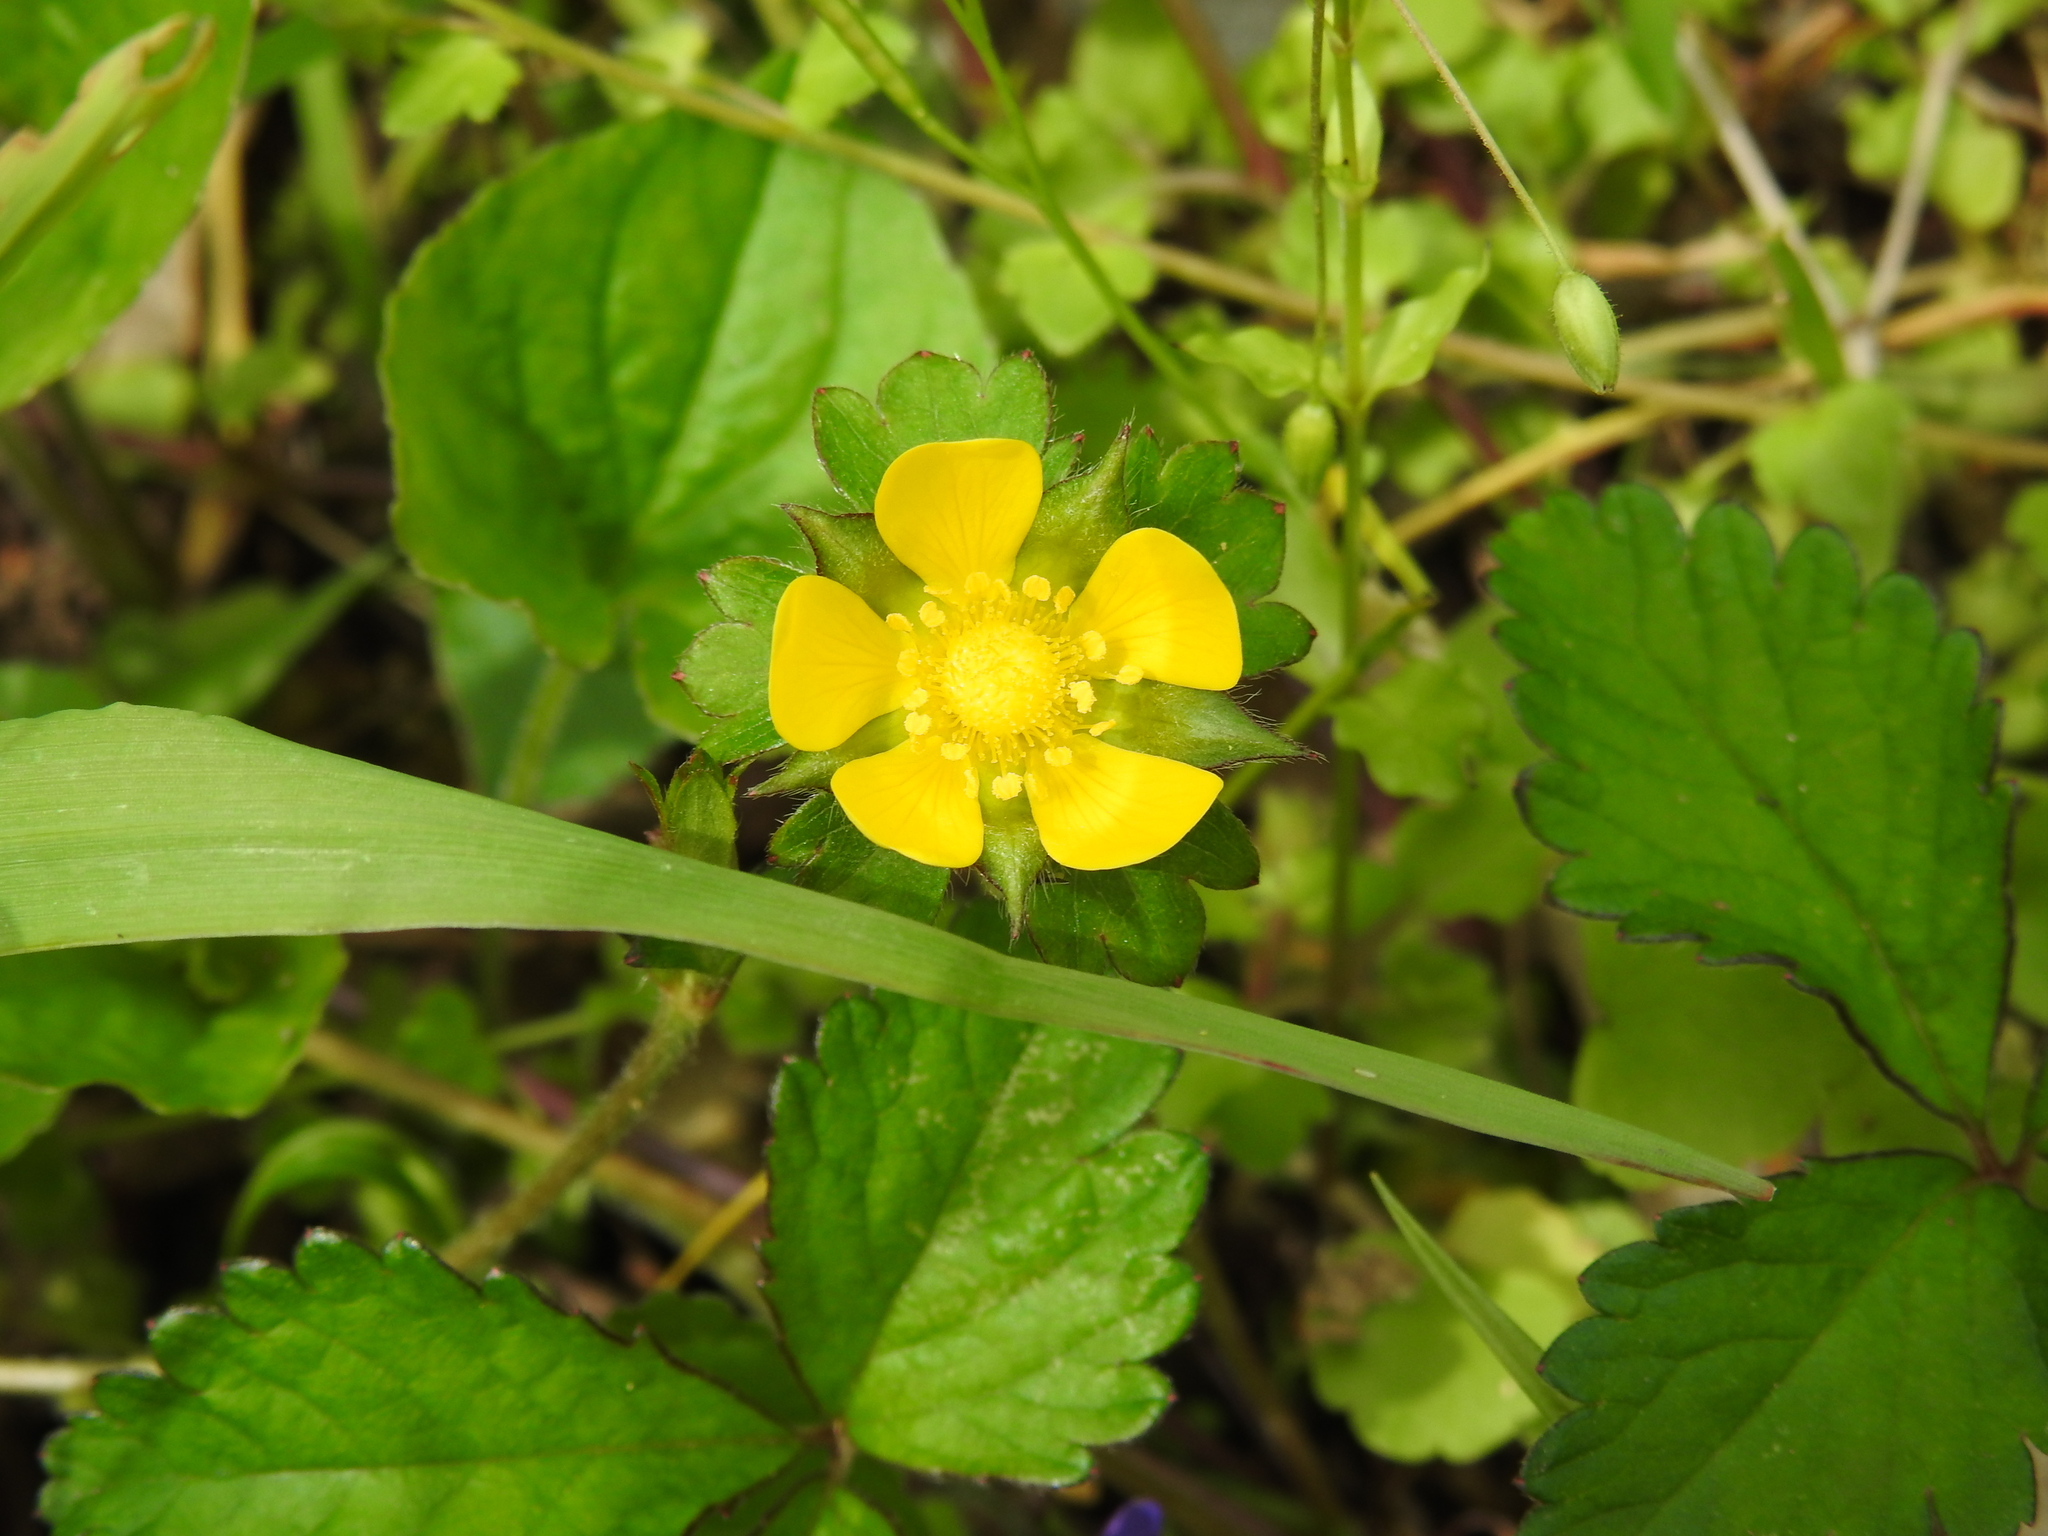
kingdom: Plantae
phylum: Tracheophyta
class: Magnoliopsida
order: Rosales
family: Rosaceae
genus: Potentilla
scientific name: Potentilla indica
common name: Yellow-flowered strawberry
